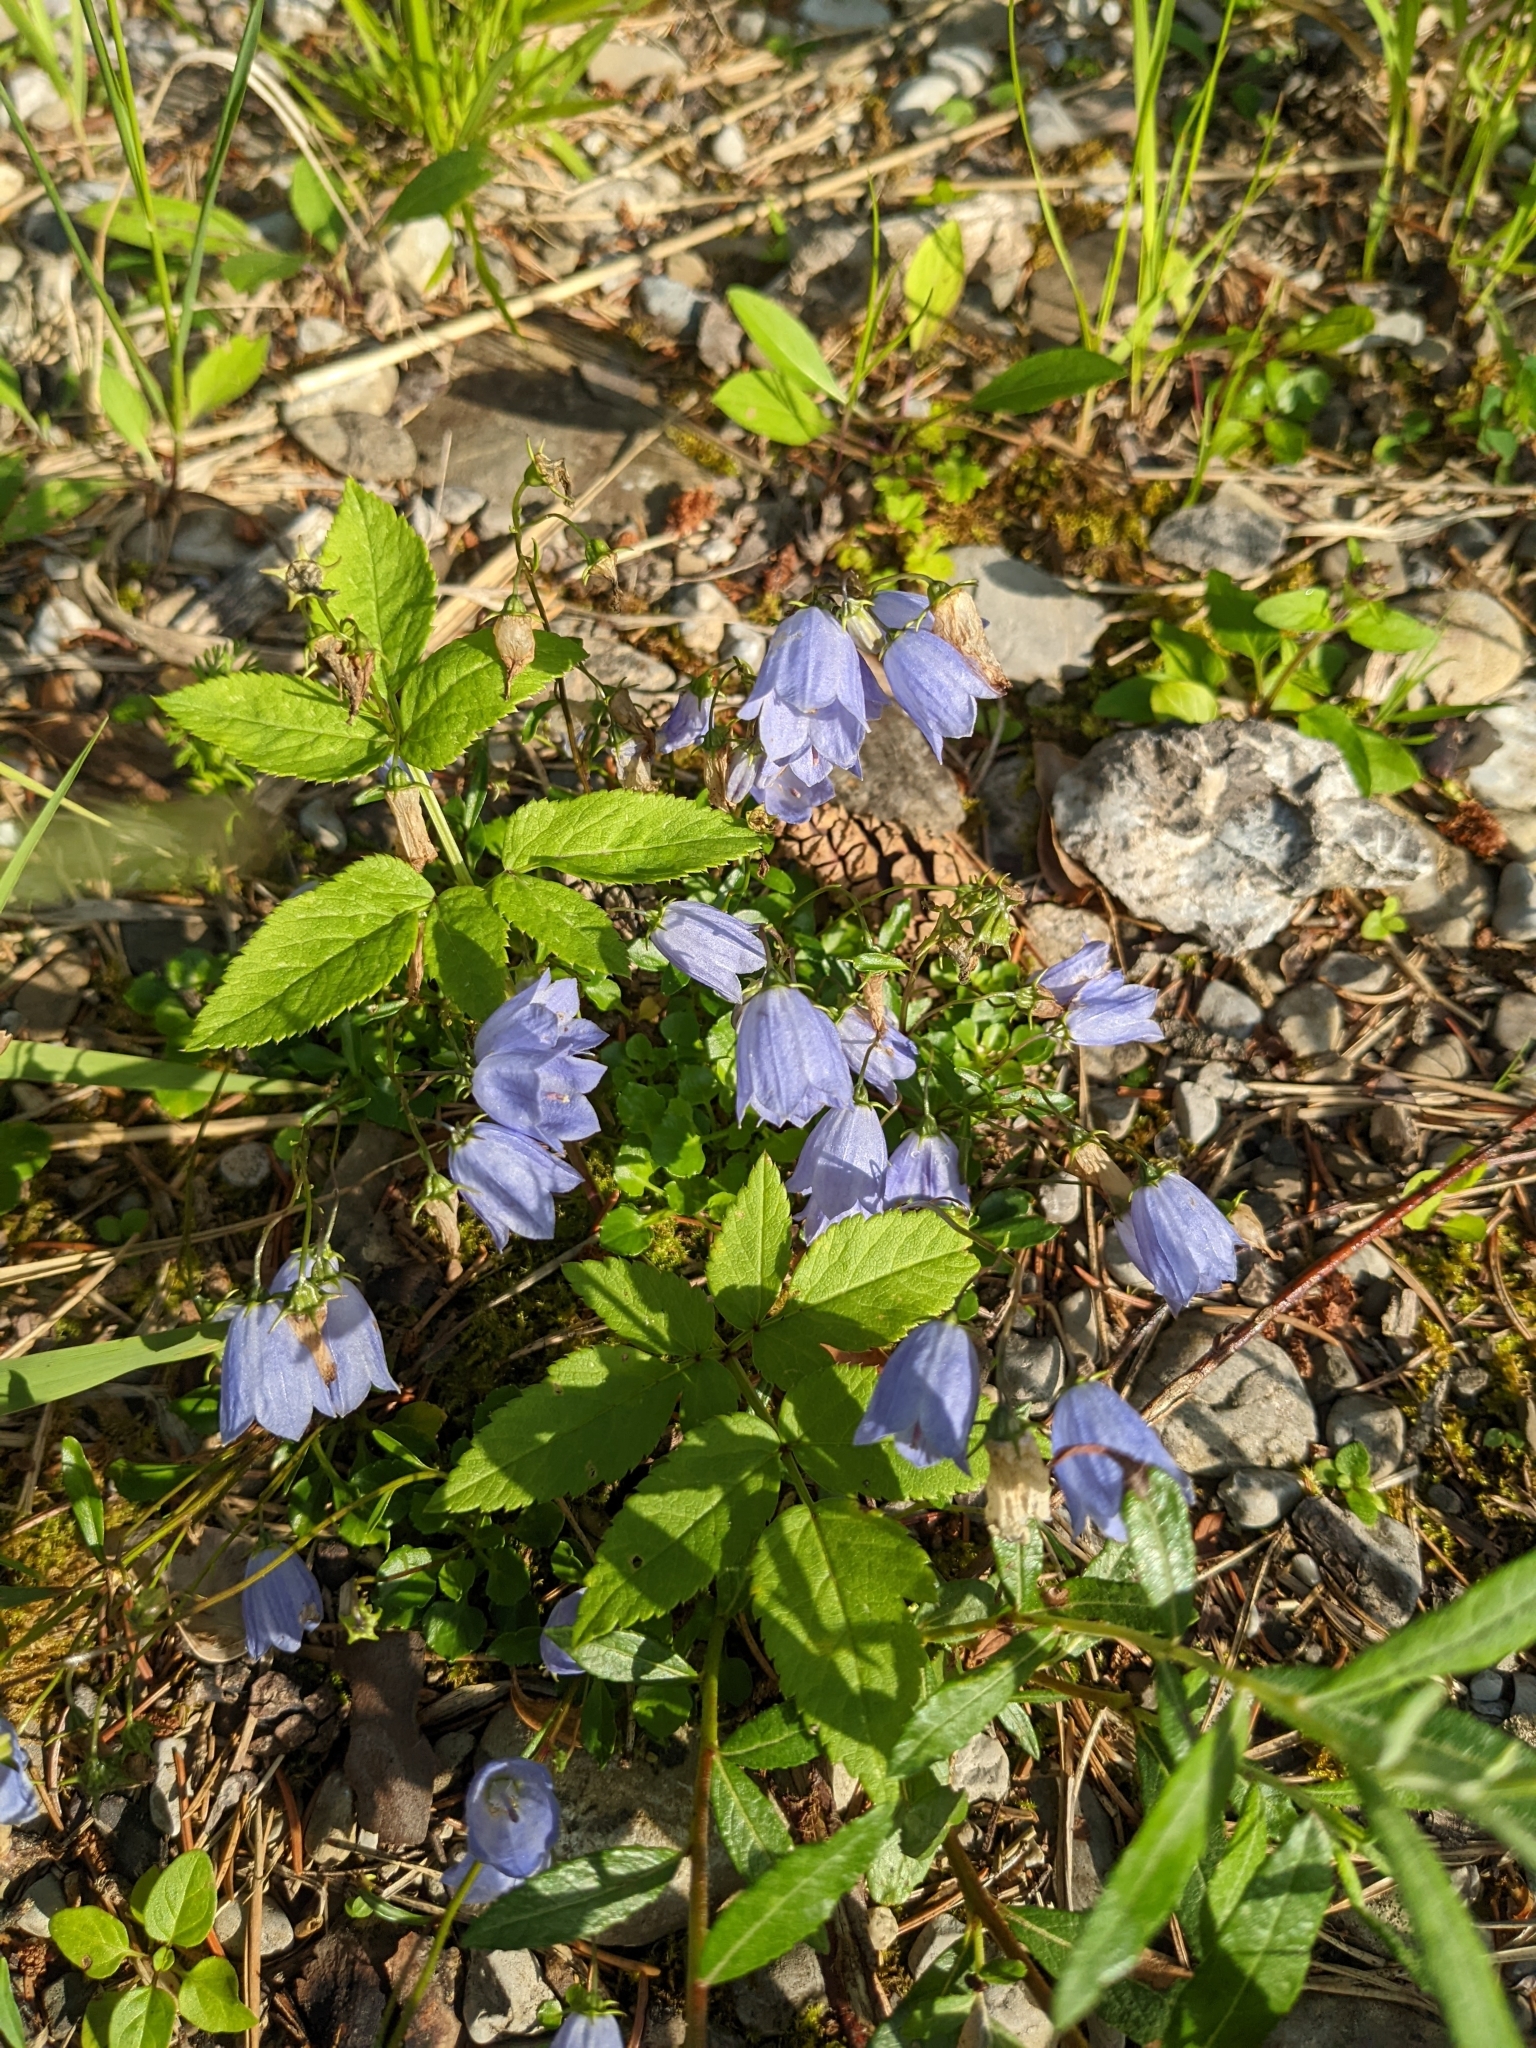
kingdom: Plantae
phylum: Tracheophyta
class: Magnoliopsida
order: Asterales
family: Campanulaceae
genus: Campanula
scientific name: Campanula cochleariifolia
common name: Fairies'-thimbles
